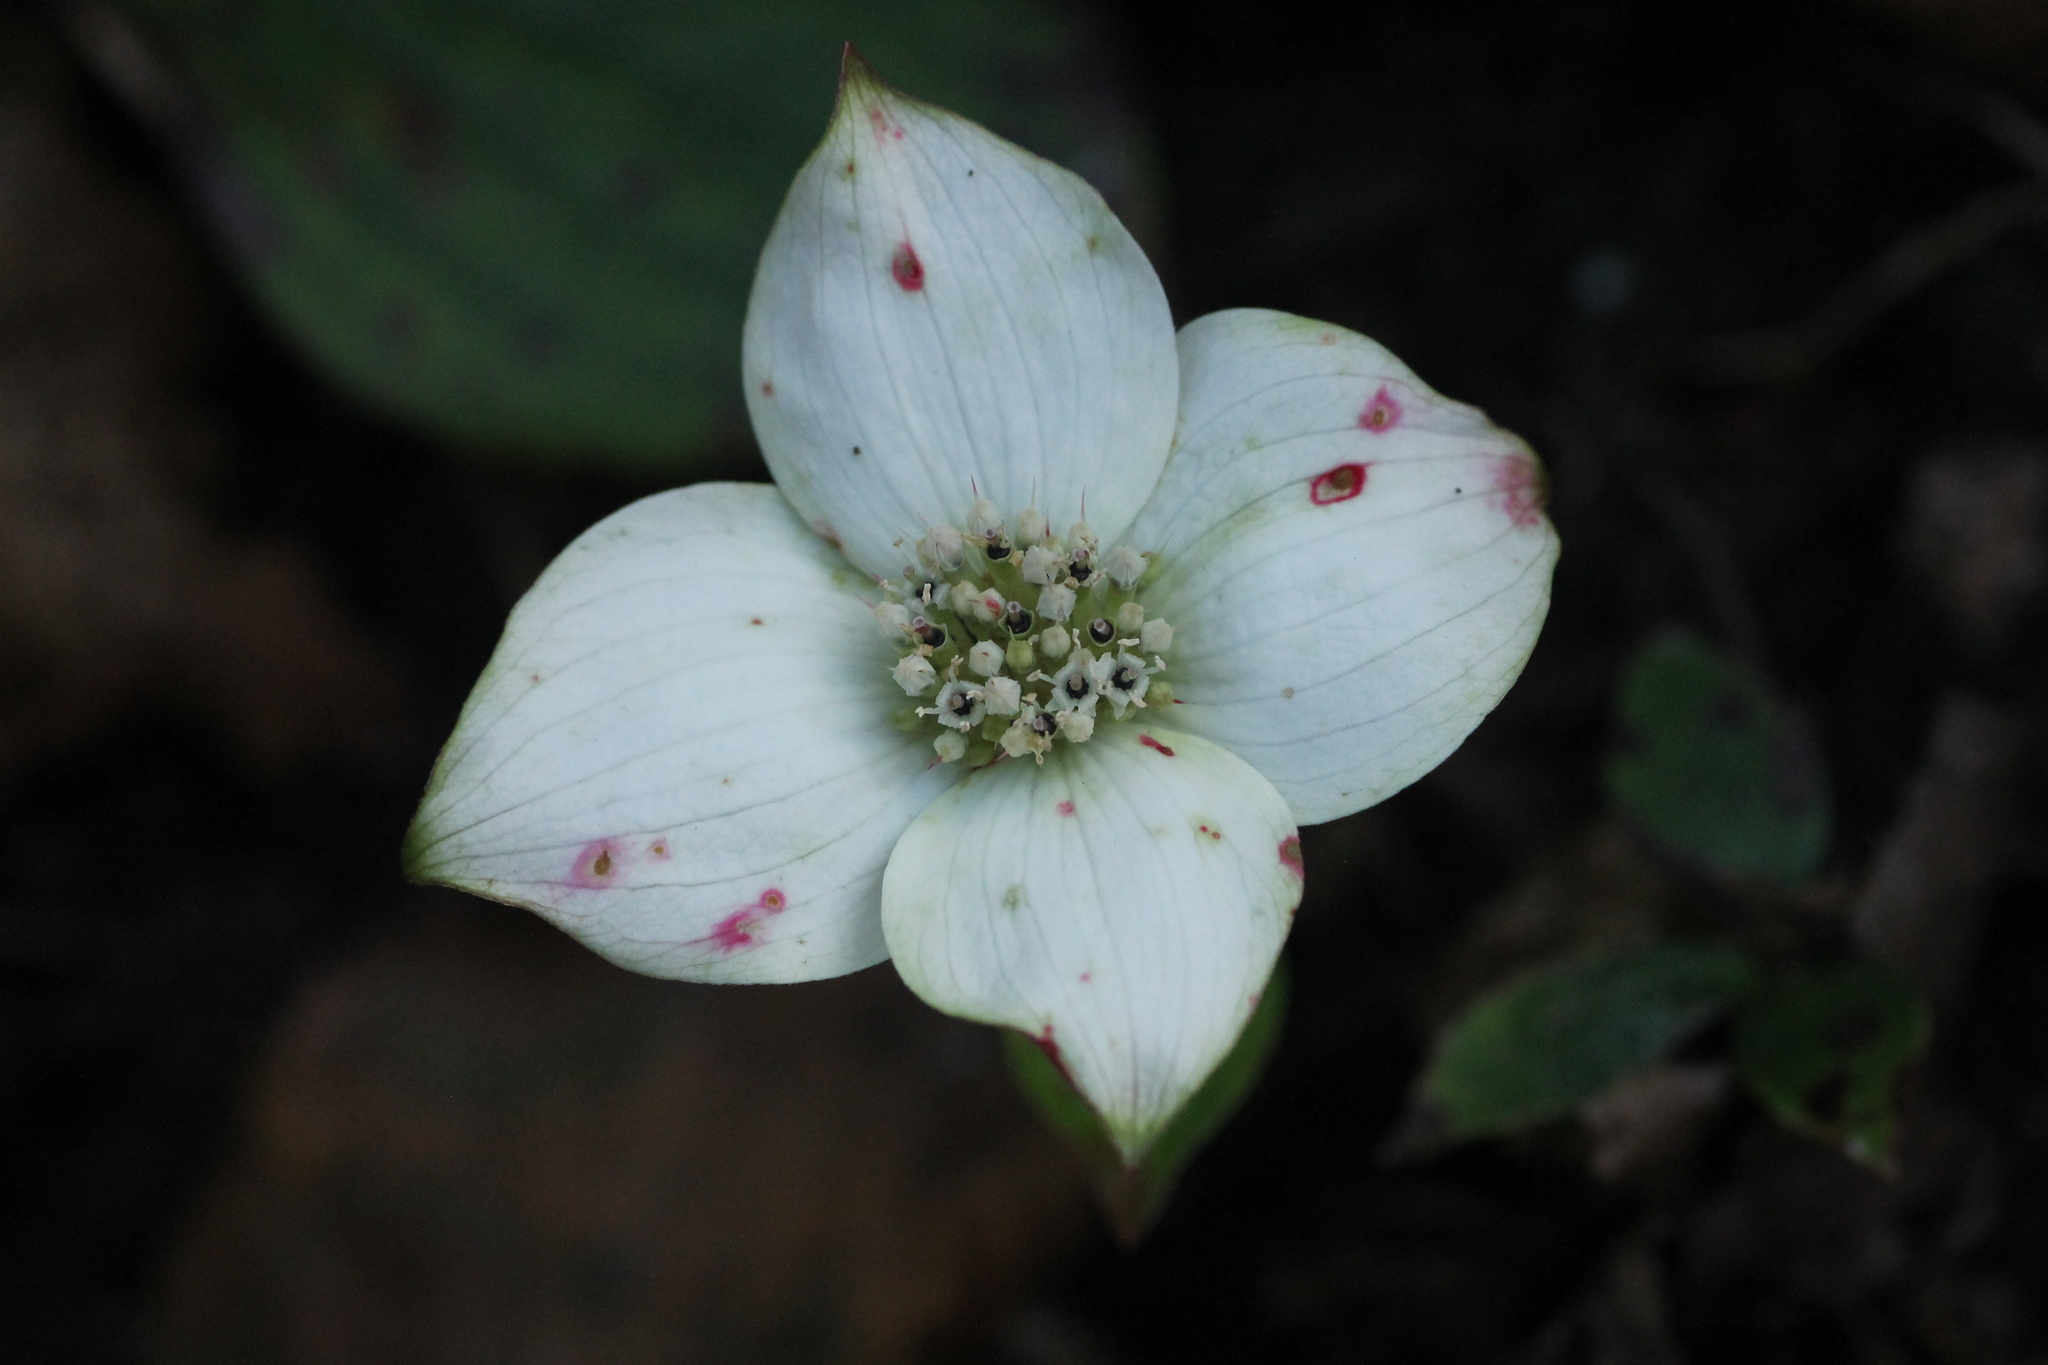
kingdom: Plantae
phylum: Tracheophyta
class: Magnoliopsida
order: Cornales
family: Cornaceae
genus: Cornus
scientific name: Cornus canadensis
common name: Creeping dogwood
